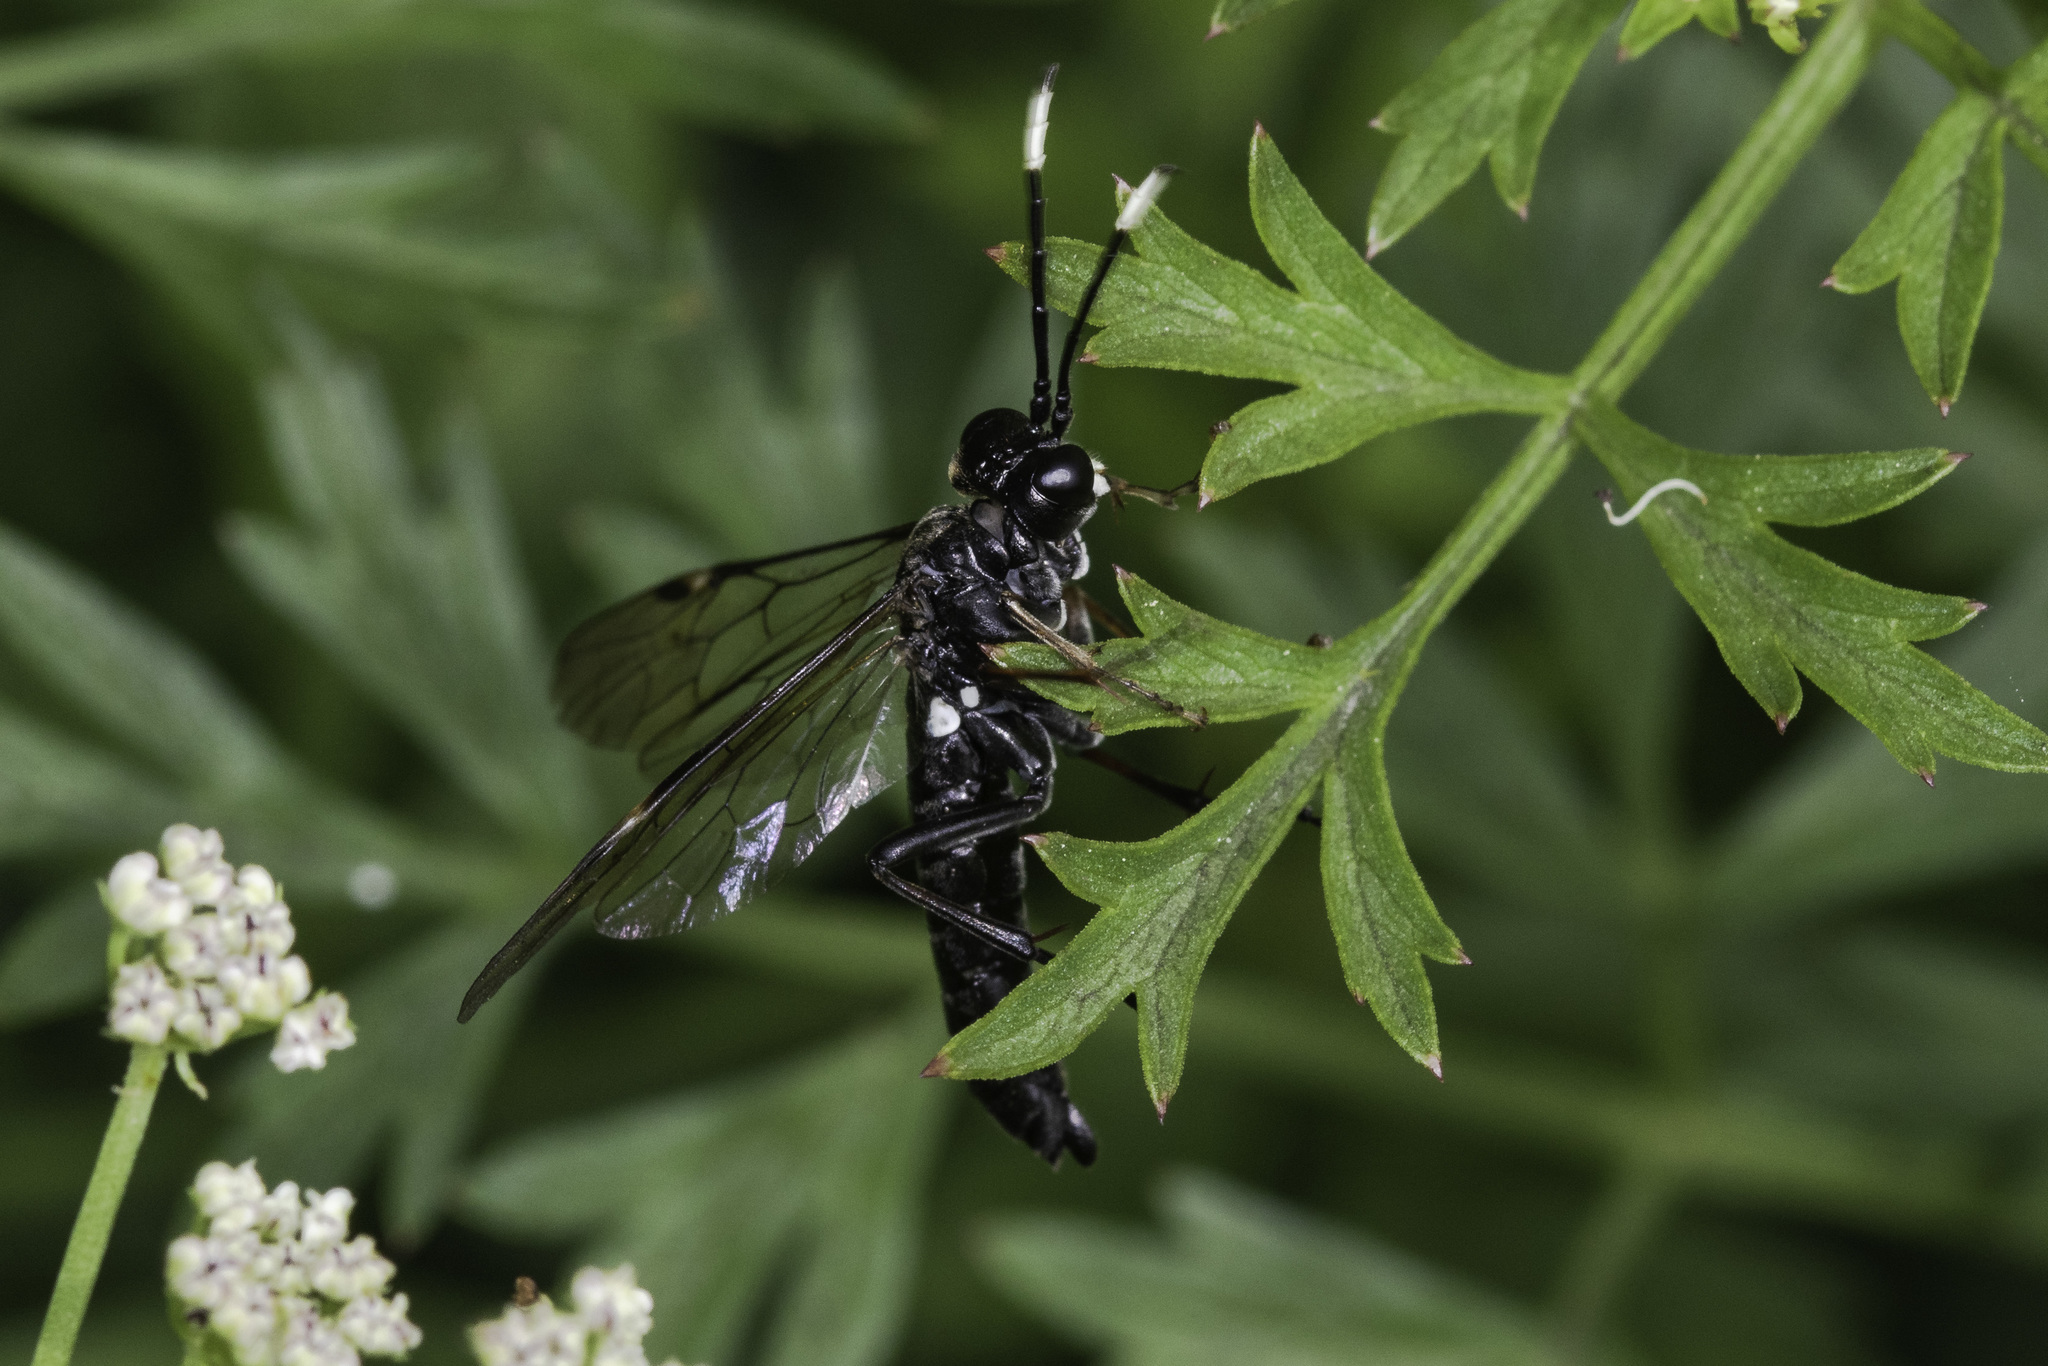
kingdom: Animalia
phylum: Arthropoda
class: Insecta
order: Hymenoptera
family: Tenthredinidae
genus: Tenthredo
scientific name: Tenthredo livida
